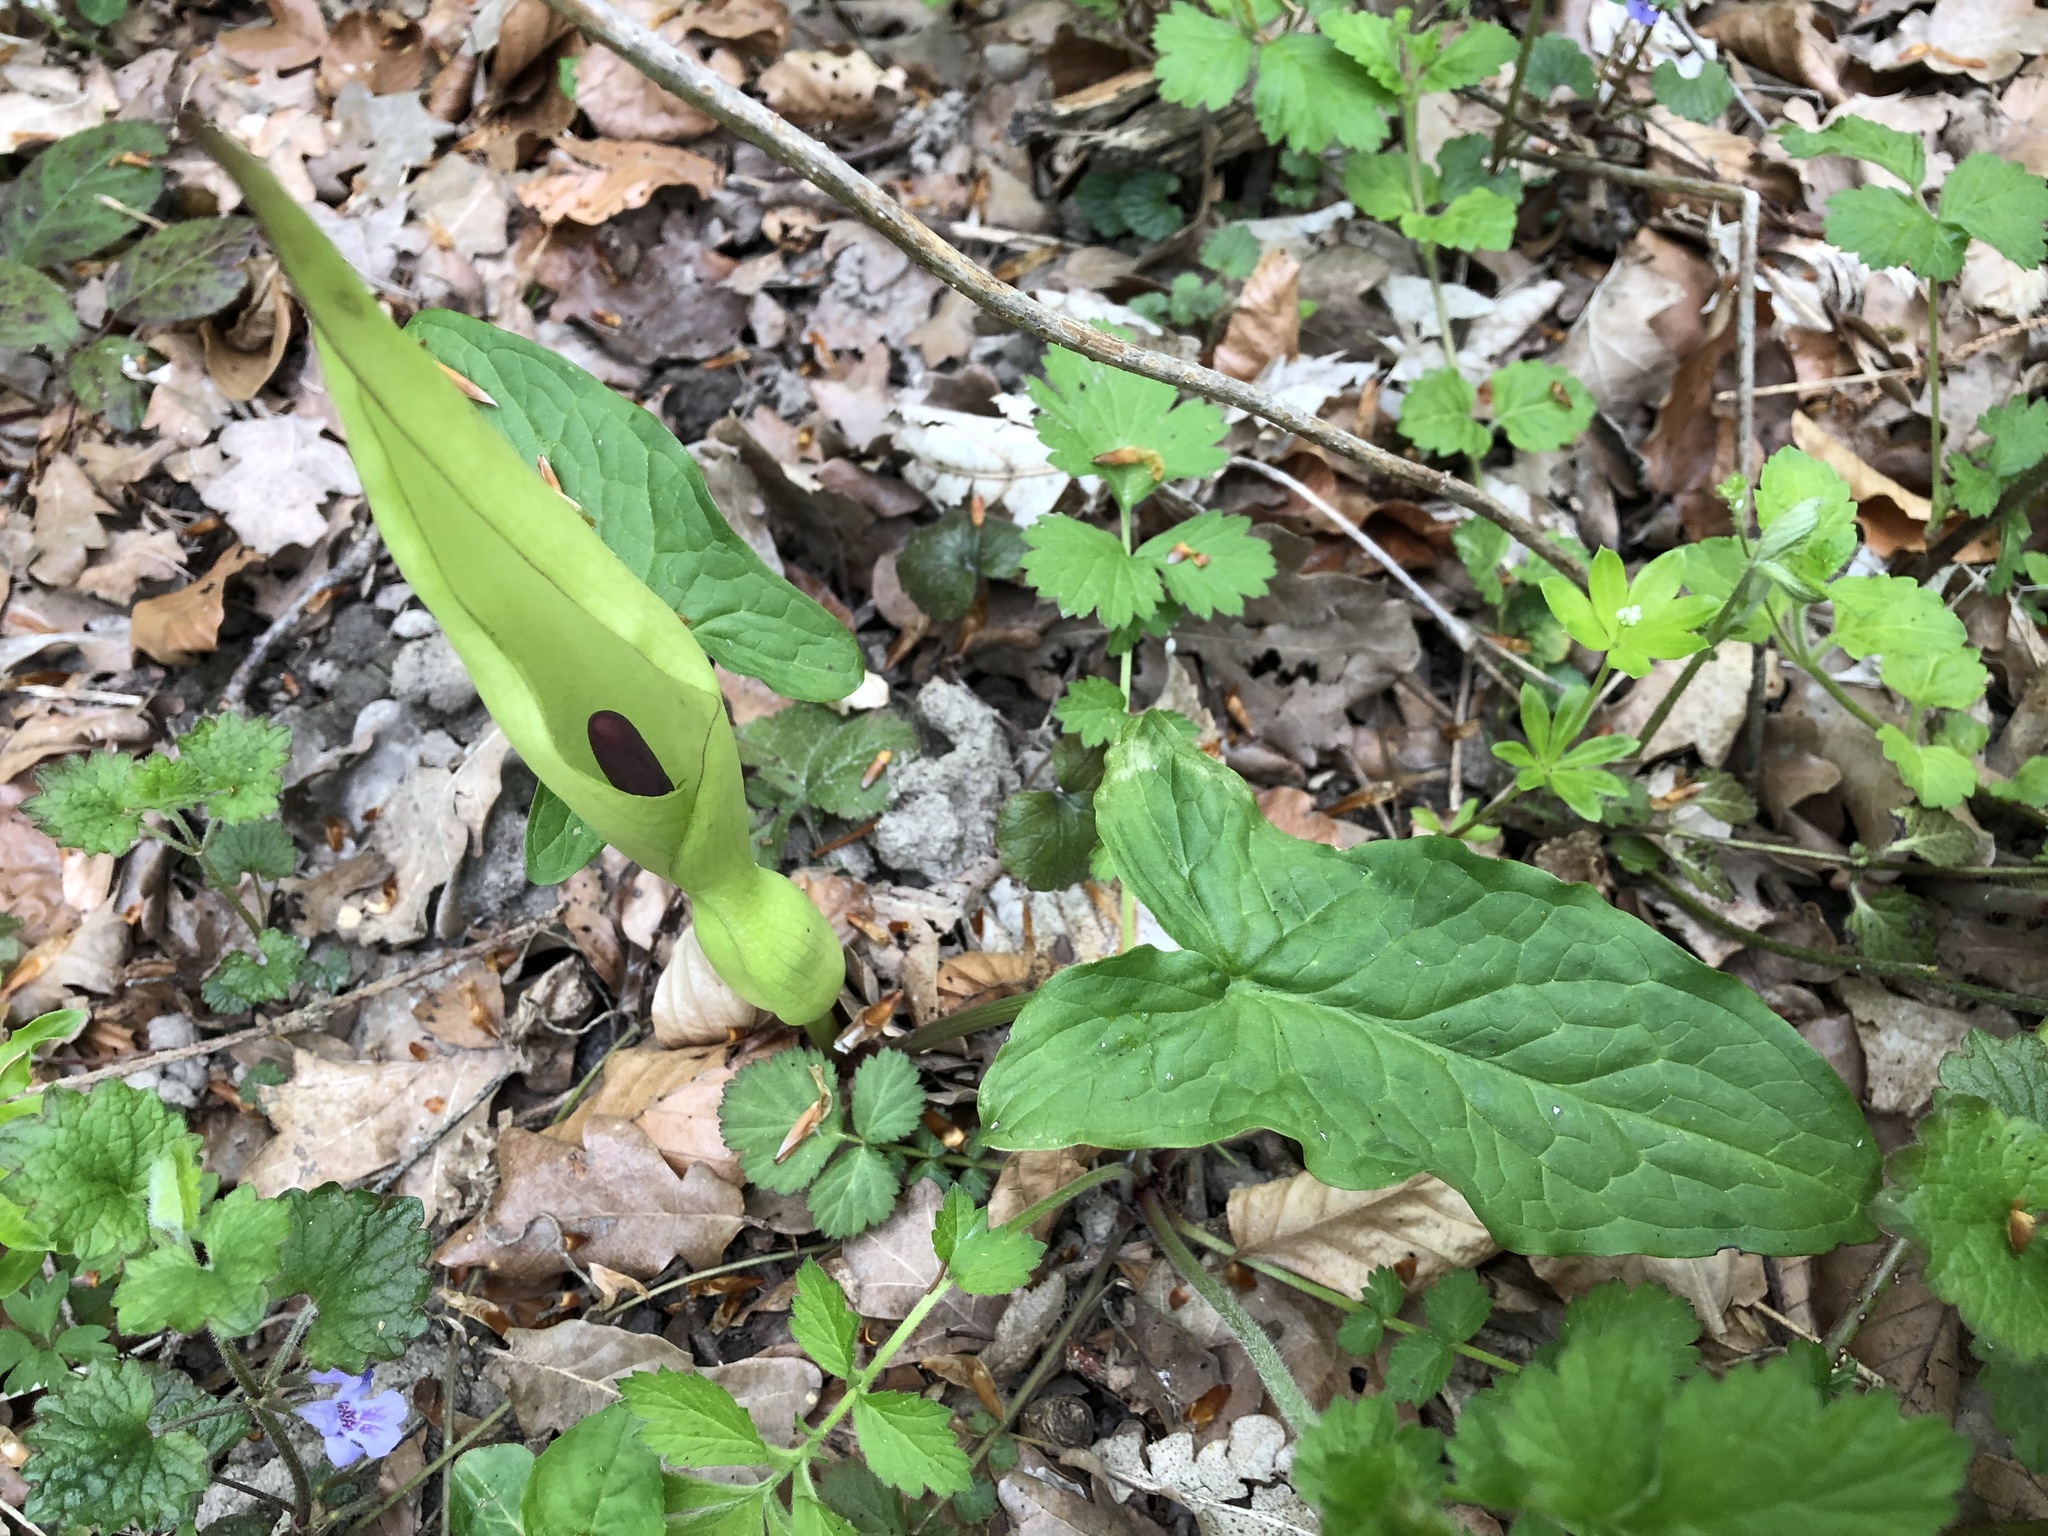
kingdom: Plantae
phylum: Tracheophyta
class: Liliopsida
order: Alismatales
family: Araceae
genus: Arum
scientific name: Arum maculatum
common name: Lords-and-ladies
